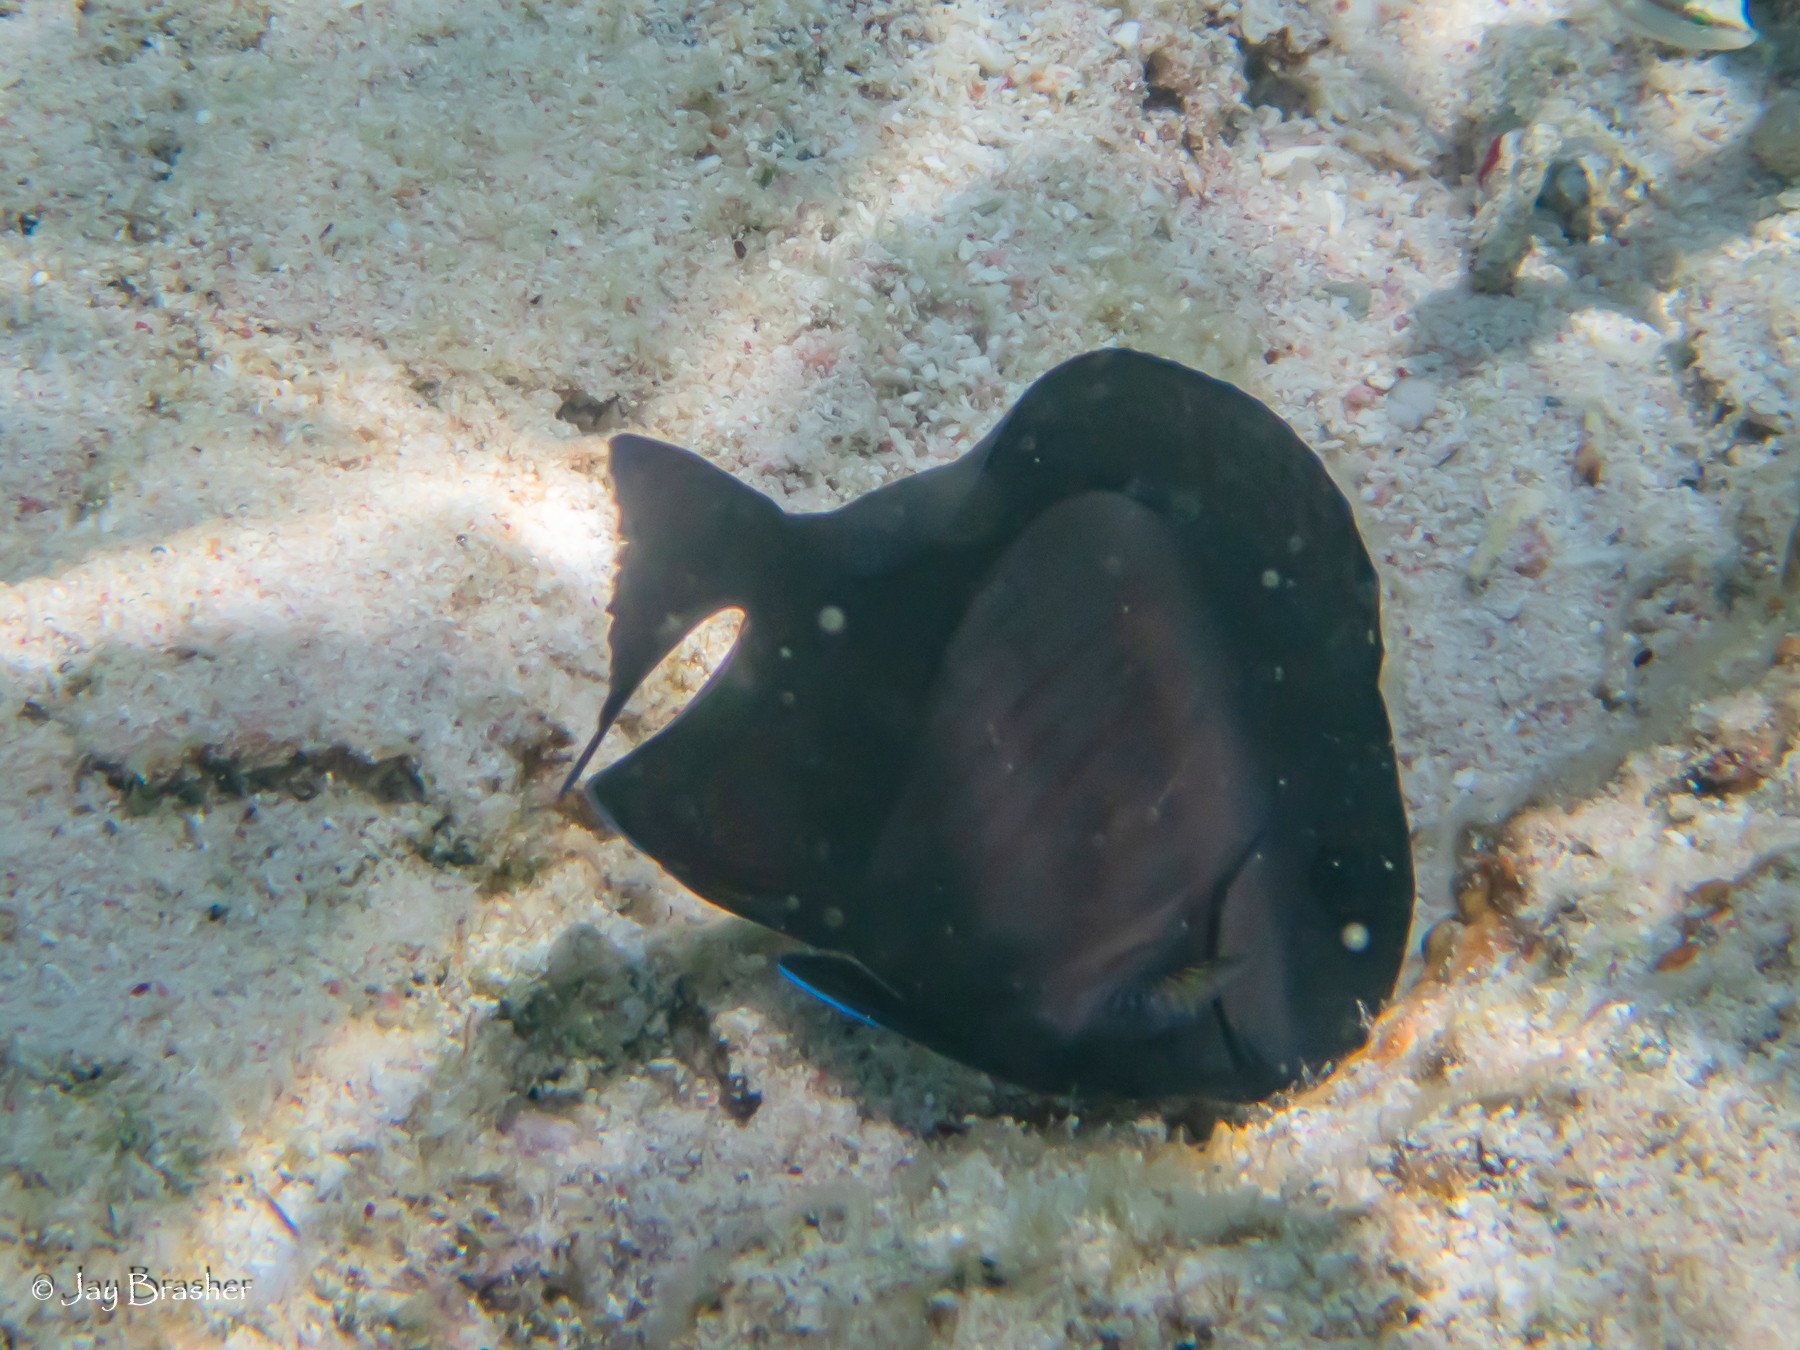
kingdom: Animalia
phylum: Chordata
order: Perciformes
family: Acanthuridae
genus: Acanthurus
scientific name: Acanthurus chirurgus
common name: Doctorfish
